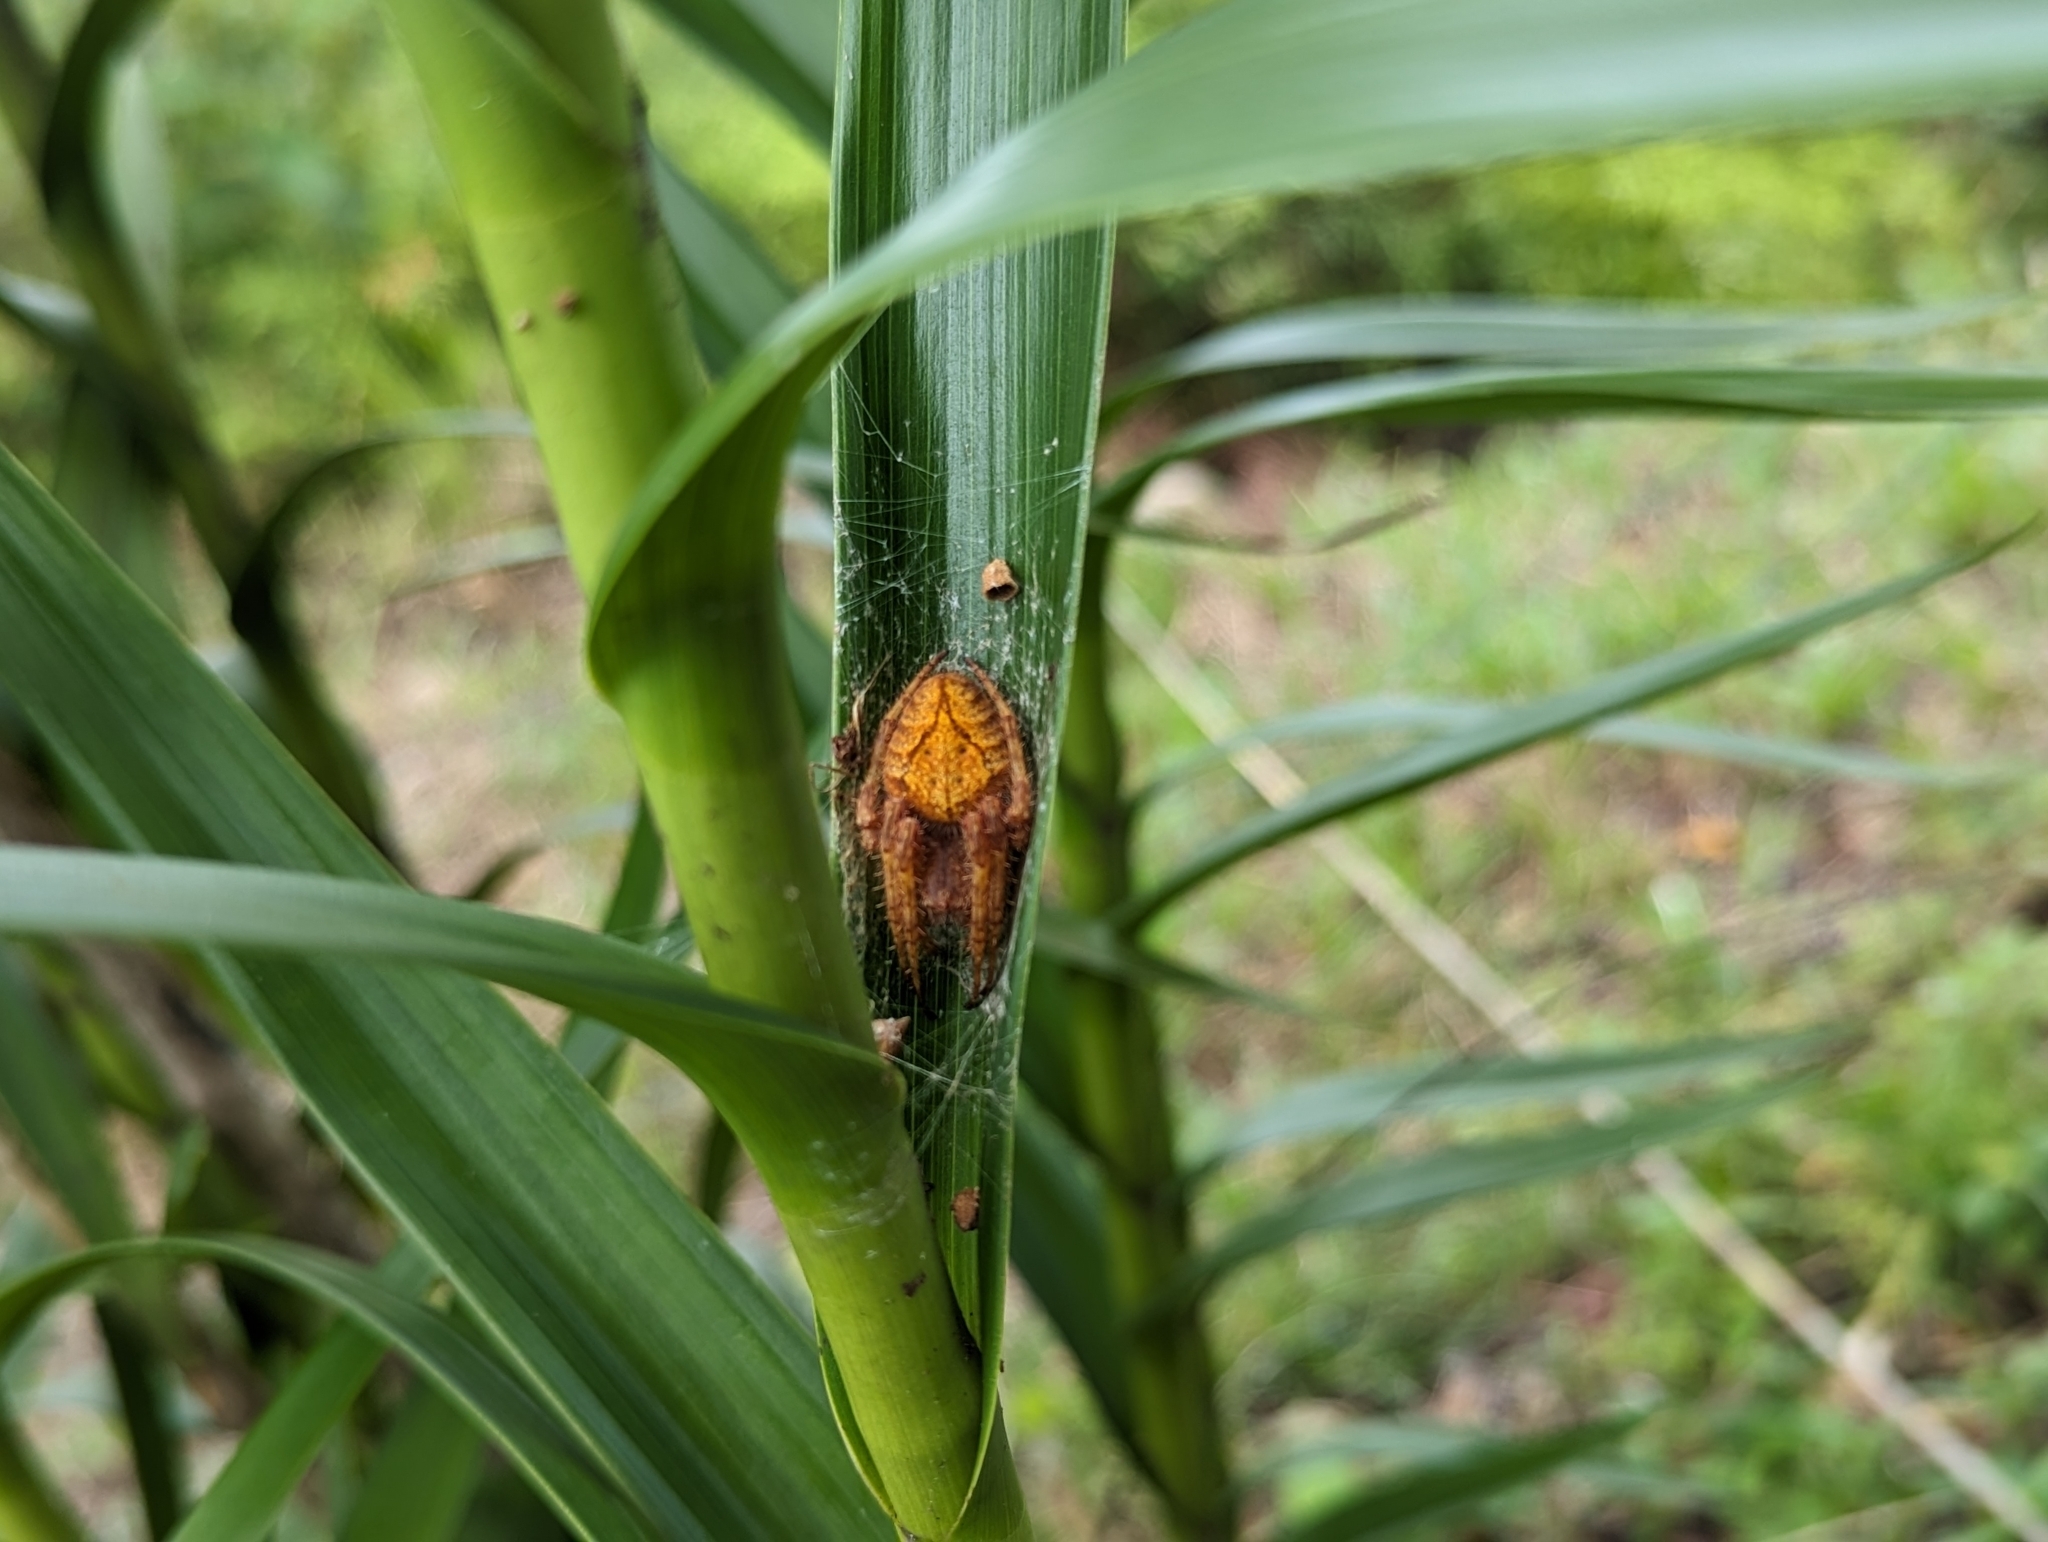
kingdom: Animalia
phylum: Arthropoda
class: Arachnida
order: Araneae
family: Araneidae
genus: Eriophora
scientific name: Eriophora edax
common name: Orb weavers
